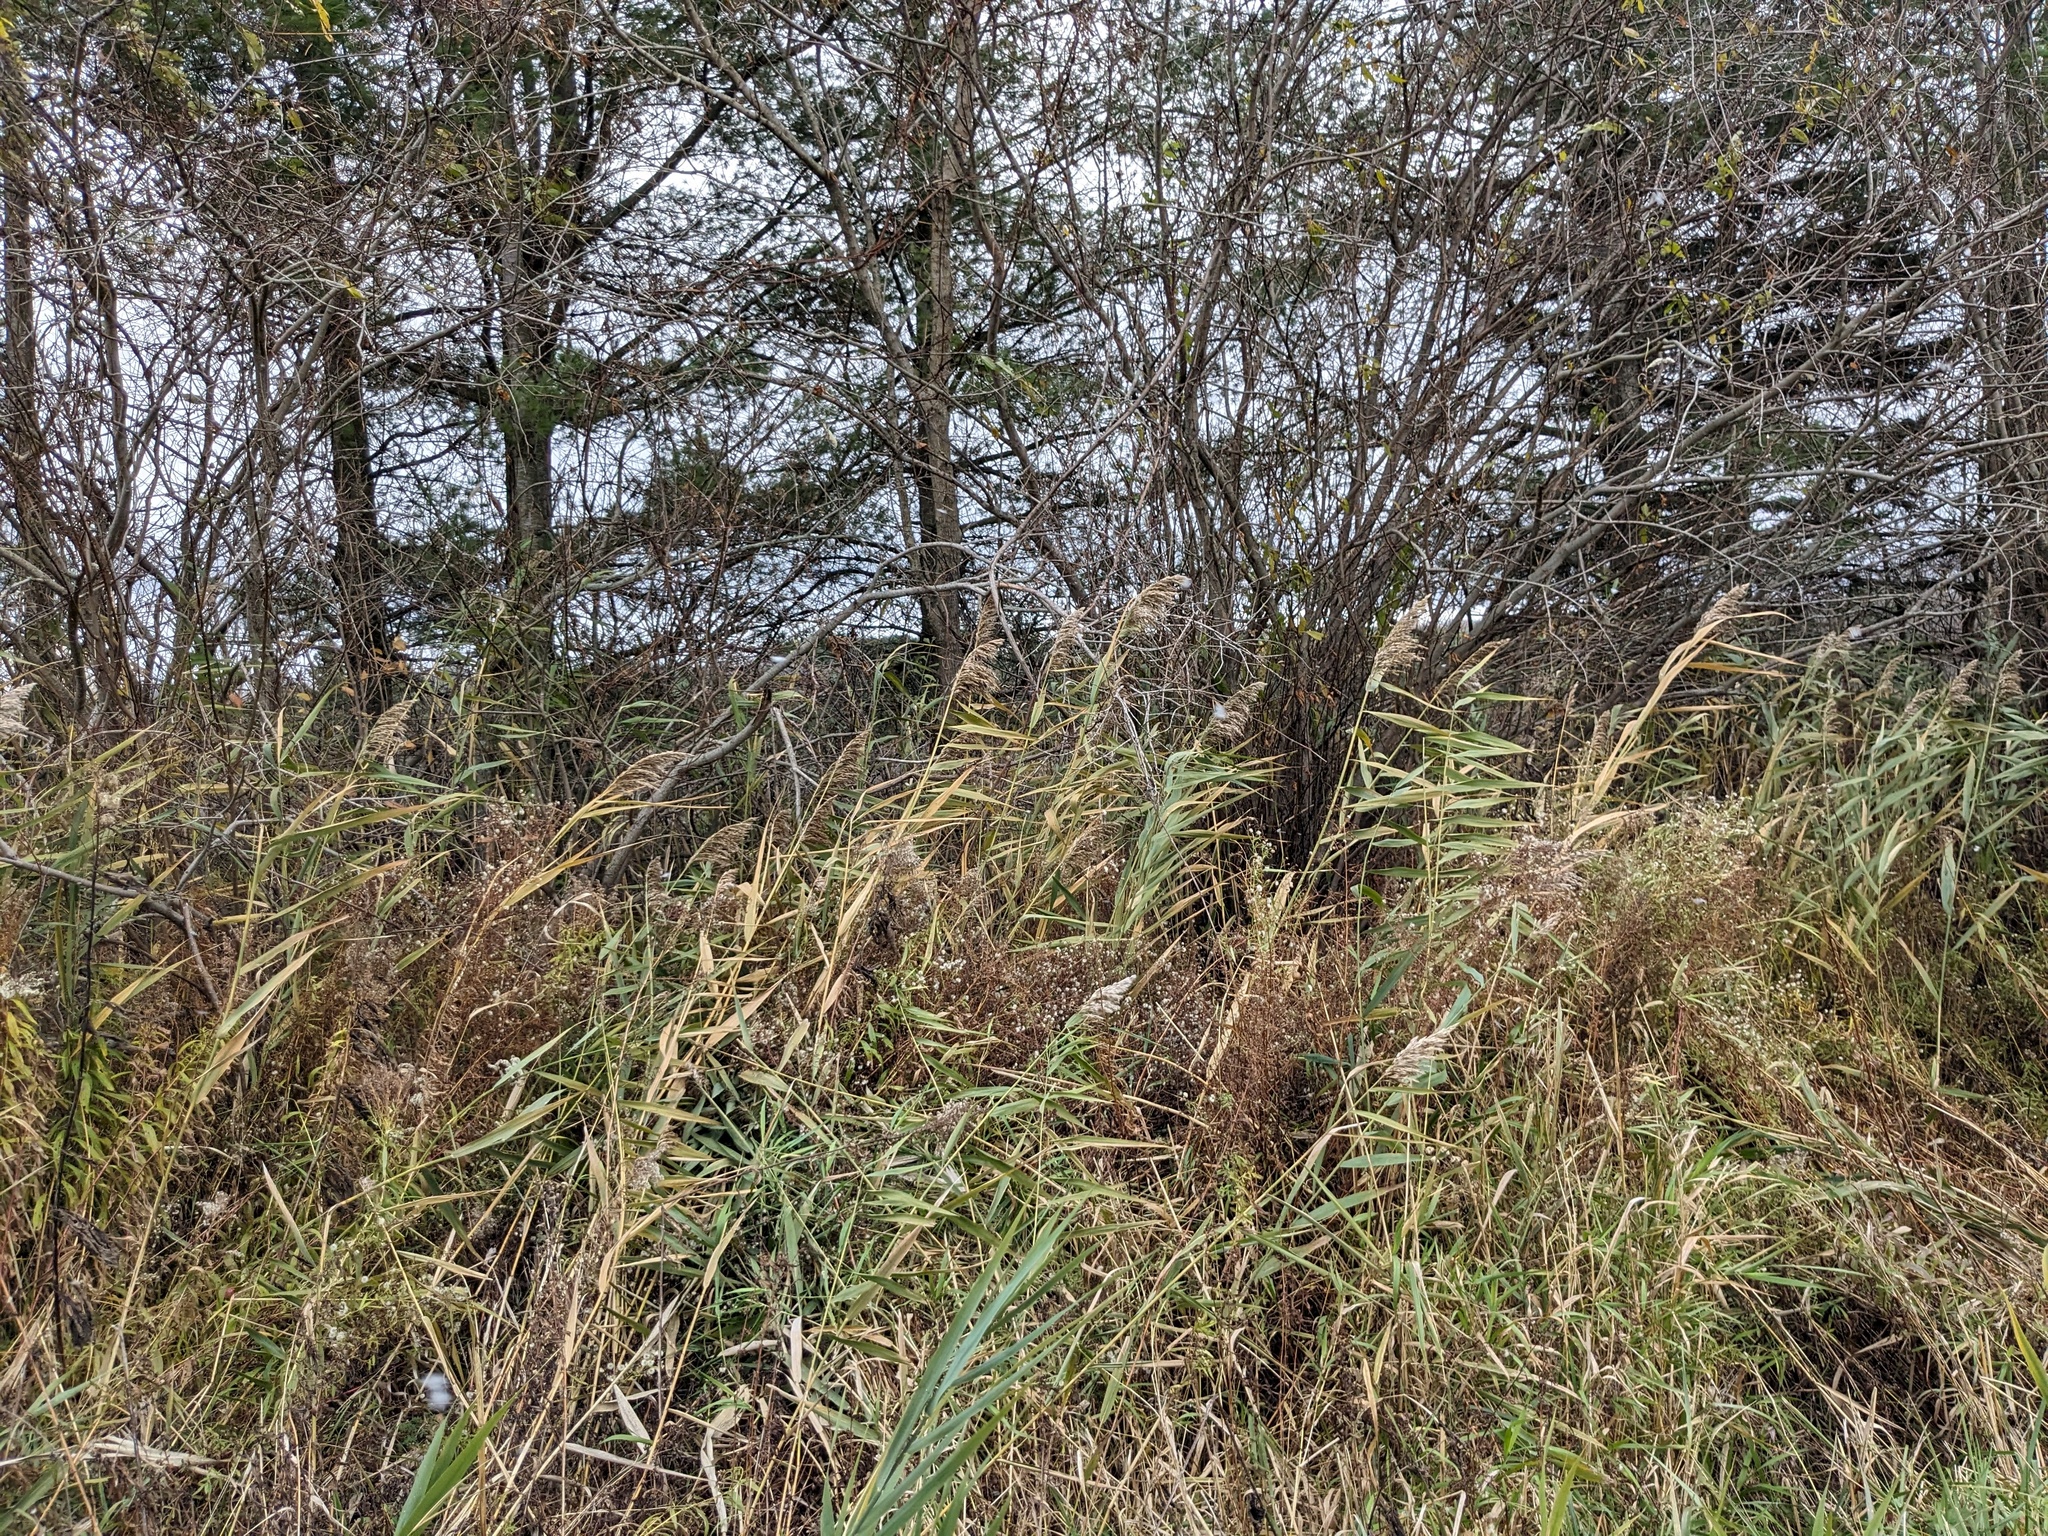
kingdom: Plantae
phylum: Tracheophyta
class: Liliopsida
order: Poales
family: Poaceae
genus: Phragmites
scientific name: Phragmites australis
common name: Common reed
